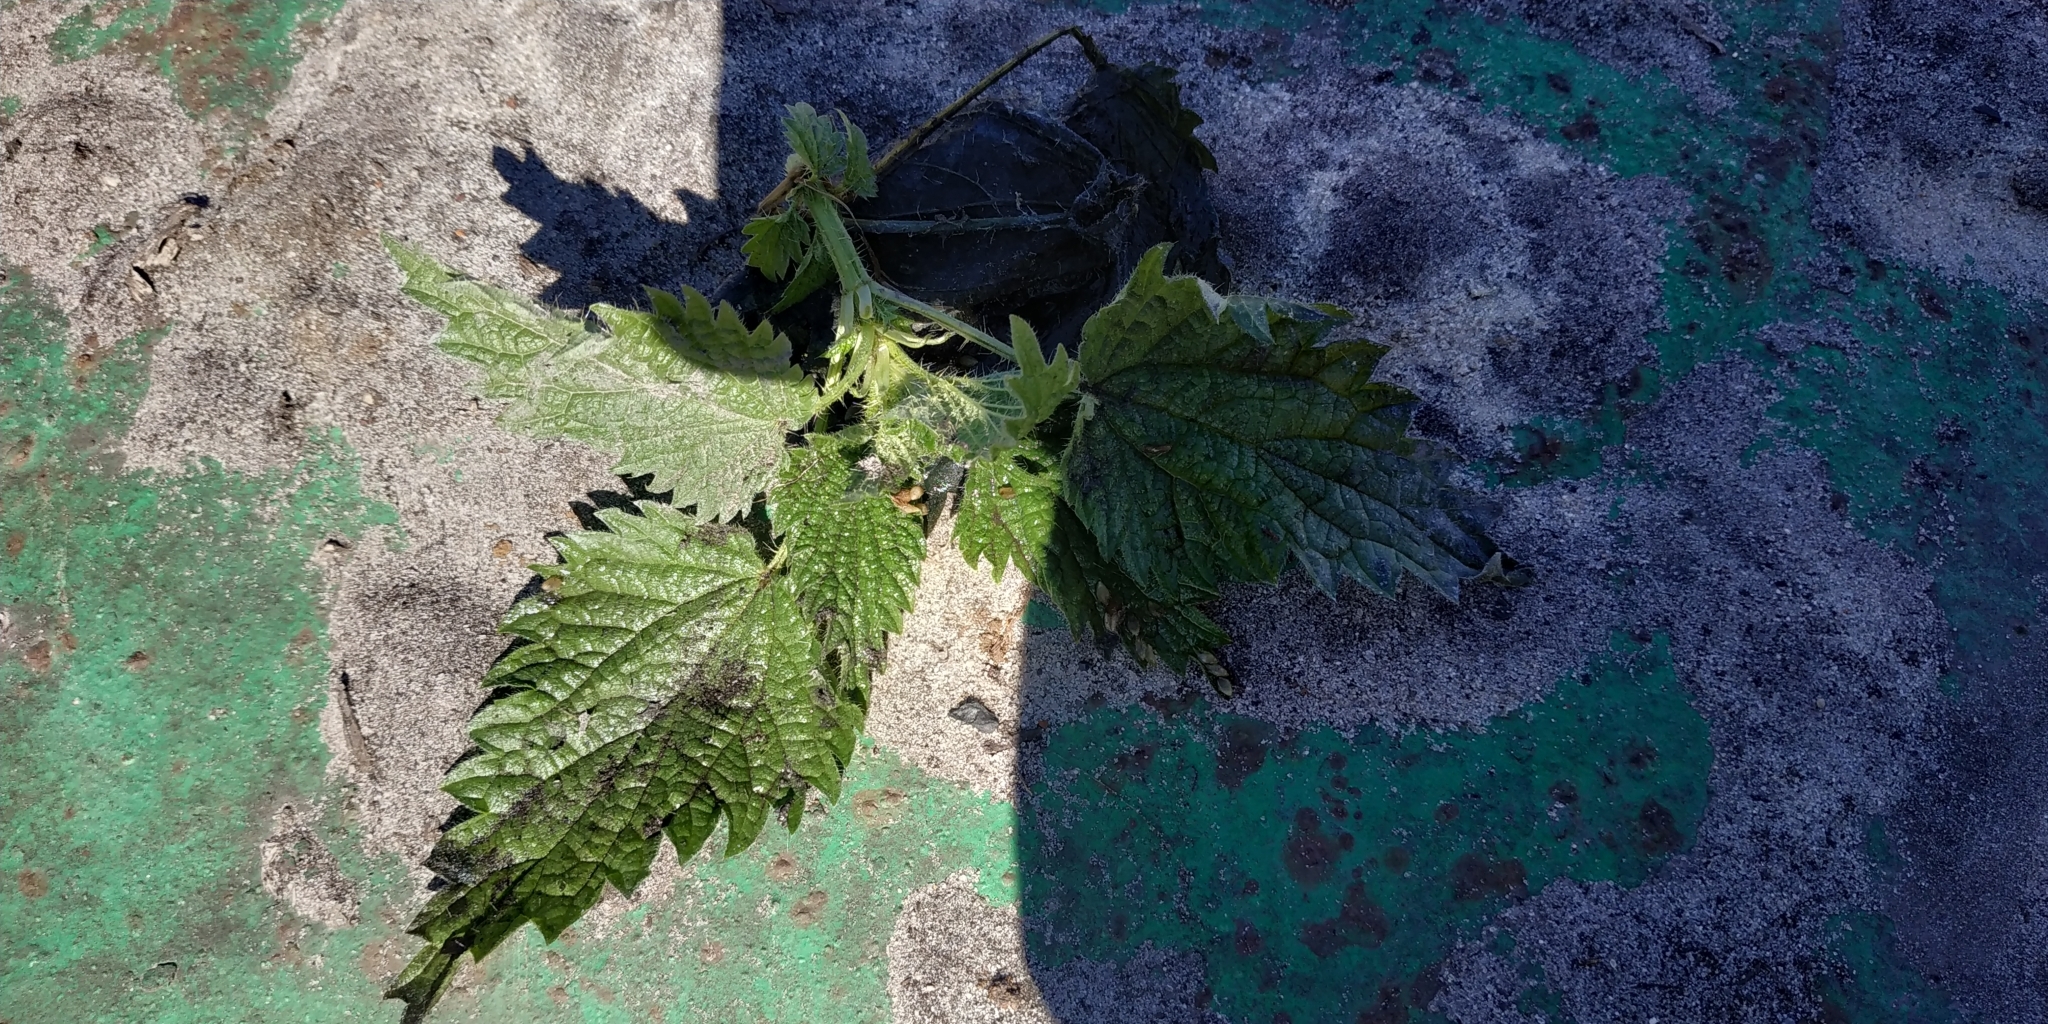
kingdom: Plantae
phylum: Tracheophyta
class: Magnoliopsida
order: Rosales
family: Urticaceae
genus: Urtica
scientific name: Urtica dioica
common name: Common nettle
